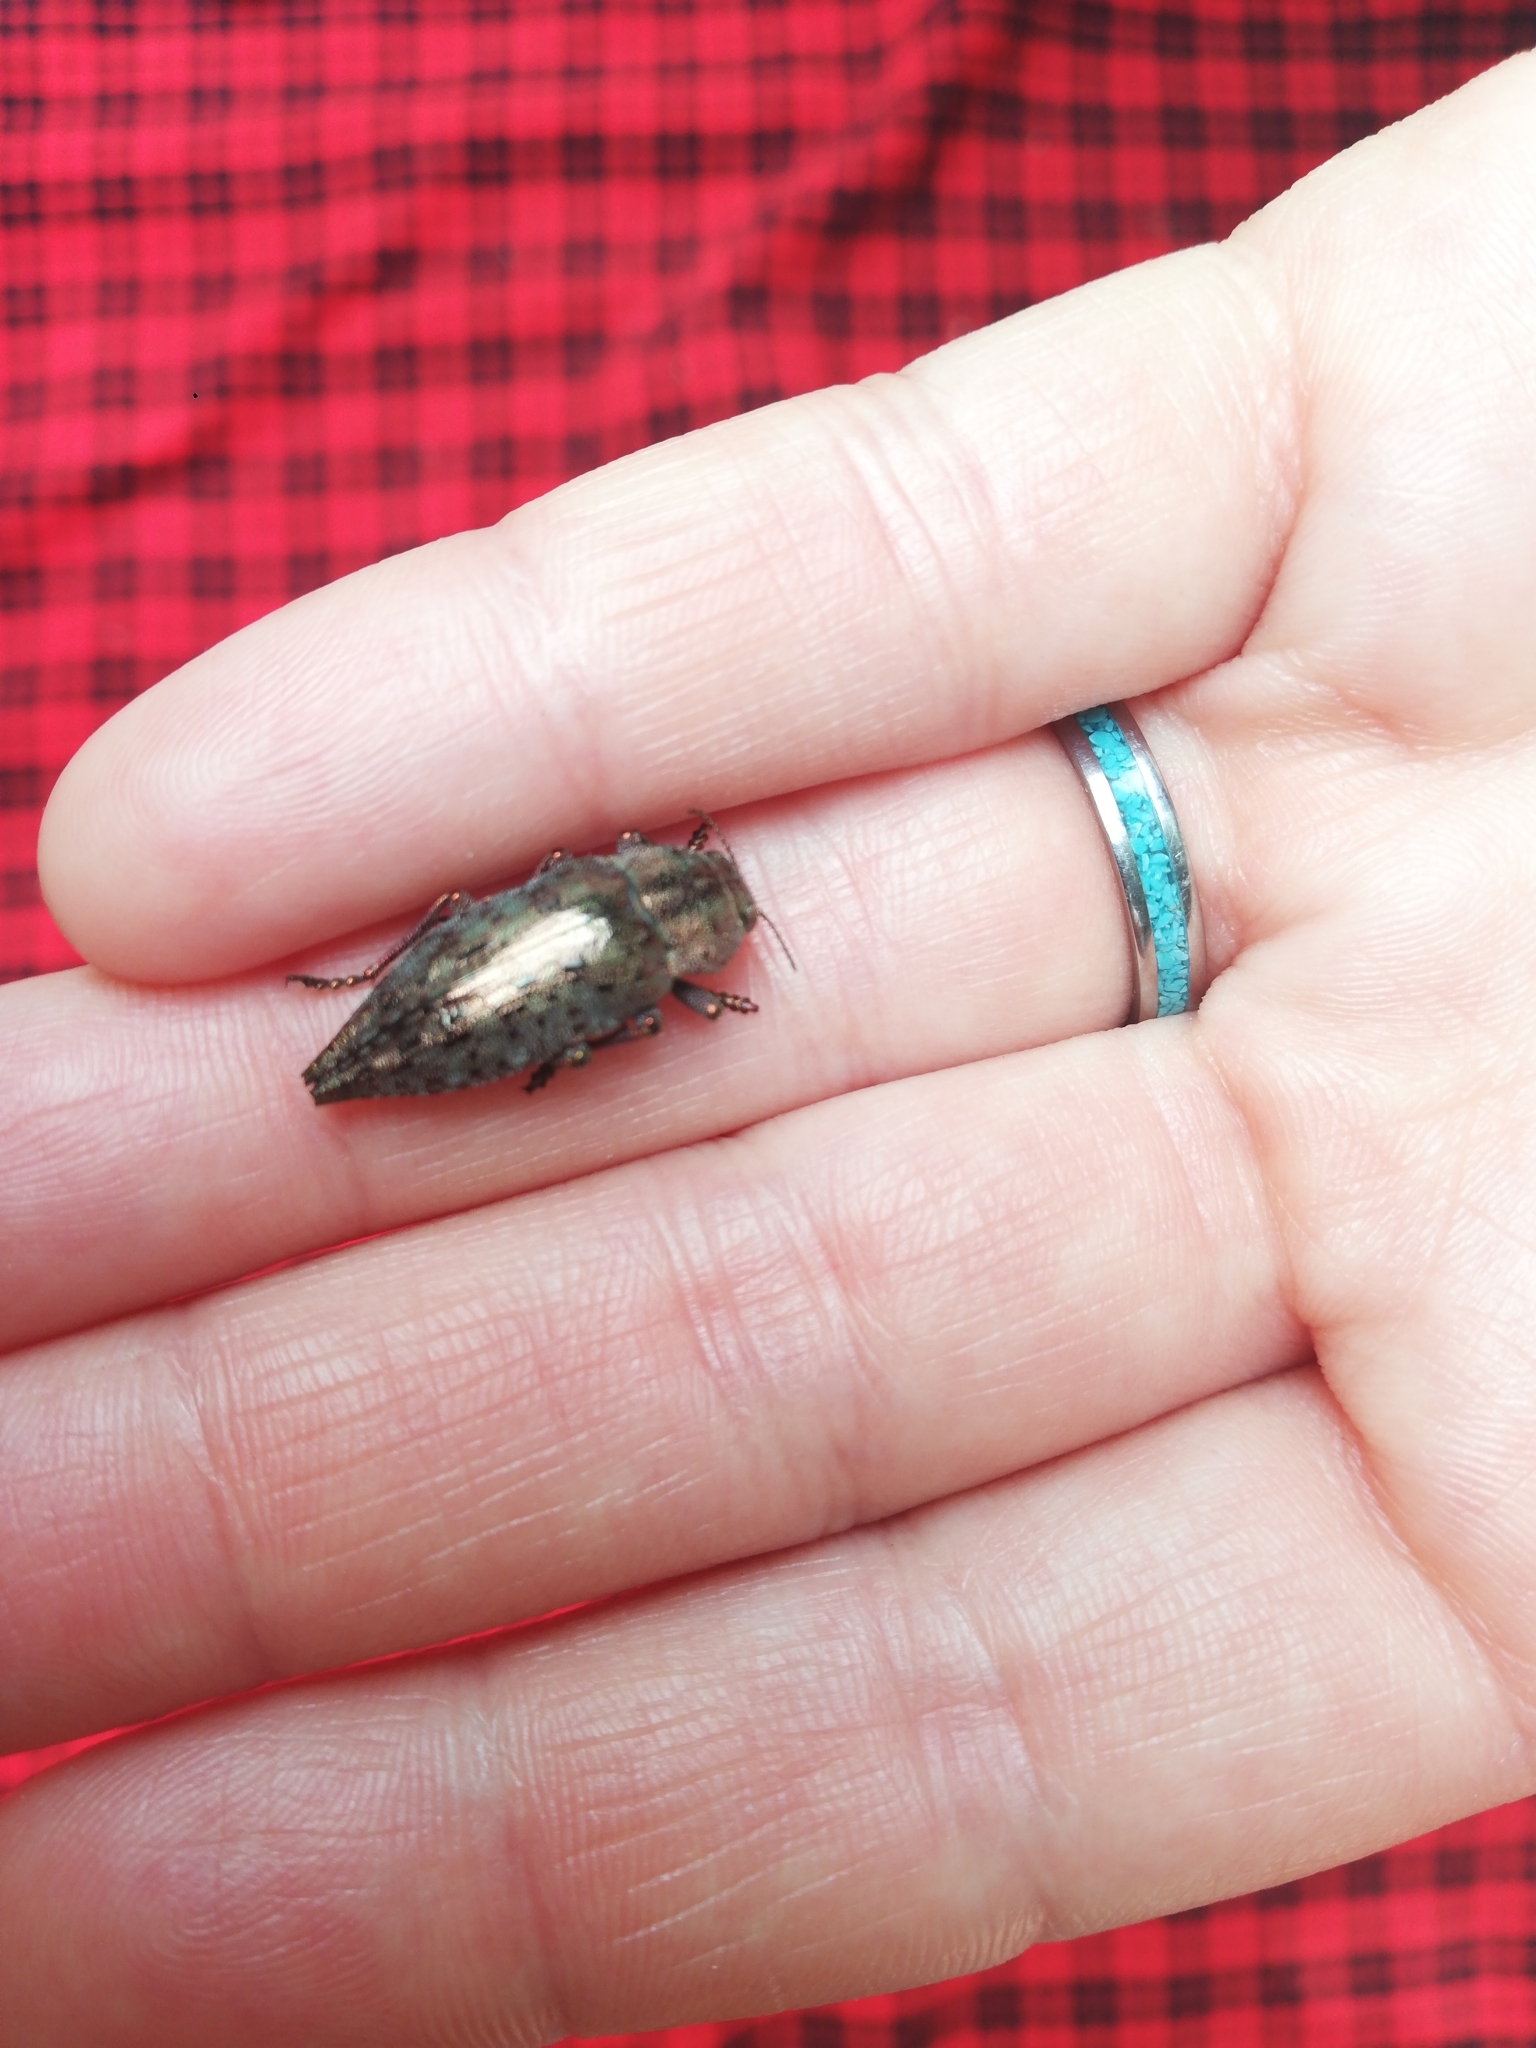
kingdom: Animalia
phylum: Arthropoda
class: Insecta
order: Coleoptera
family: Buprestidae
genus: Dicerca
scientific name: Dicerca berolinensis
